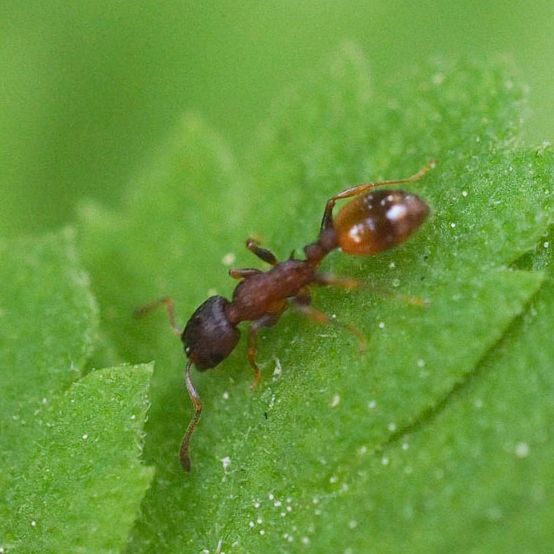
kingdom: Animalia
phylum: Arthropoda
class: Insecta
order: Hymenoptera
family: Formicidae
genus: Leptothorax
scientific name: Leptothorax
